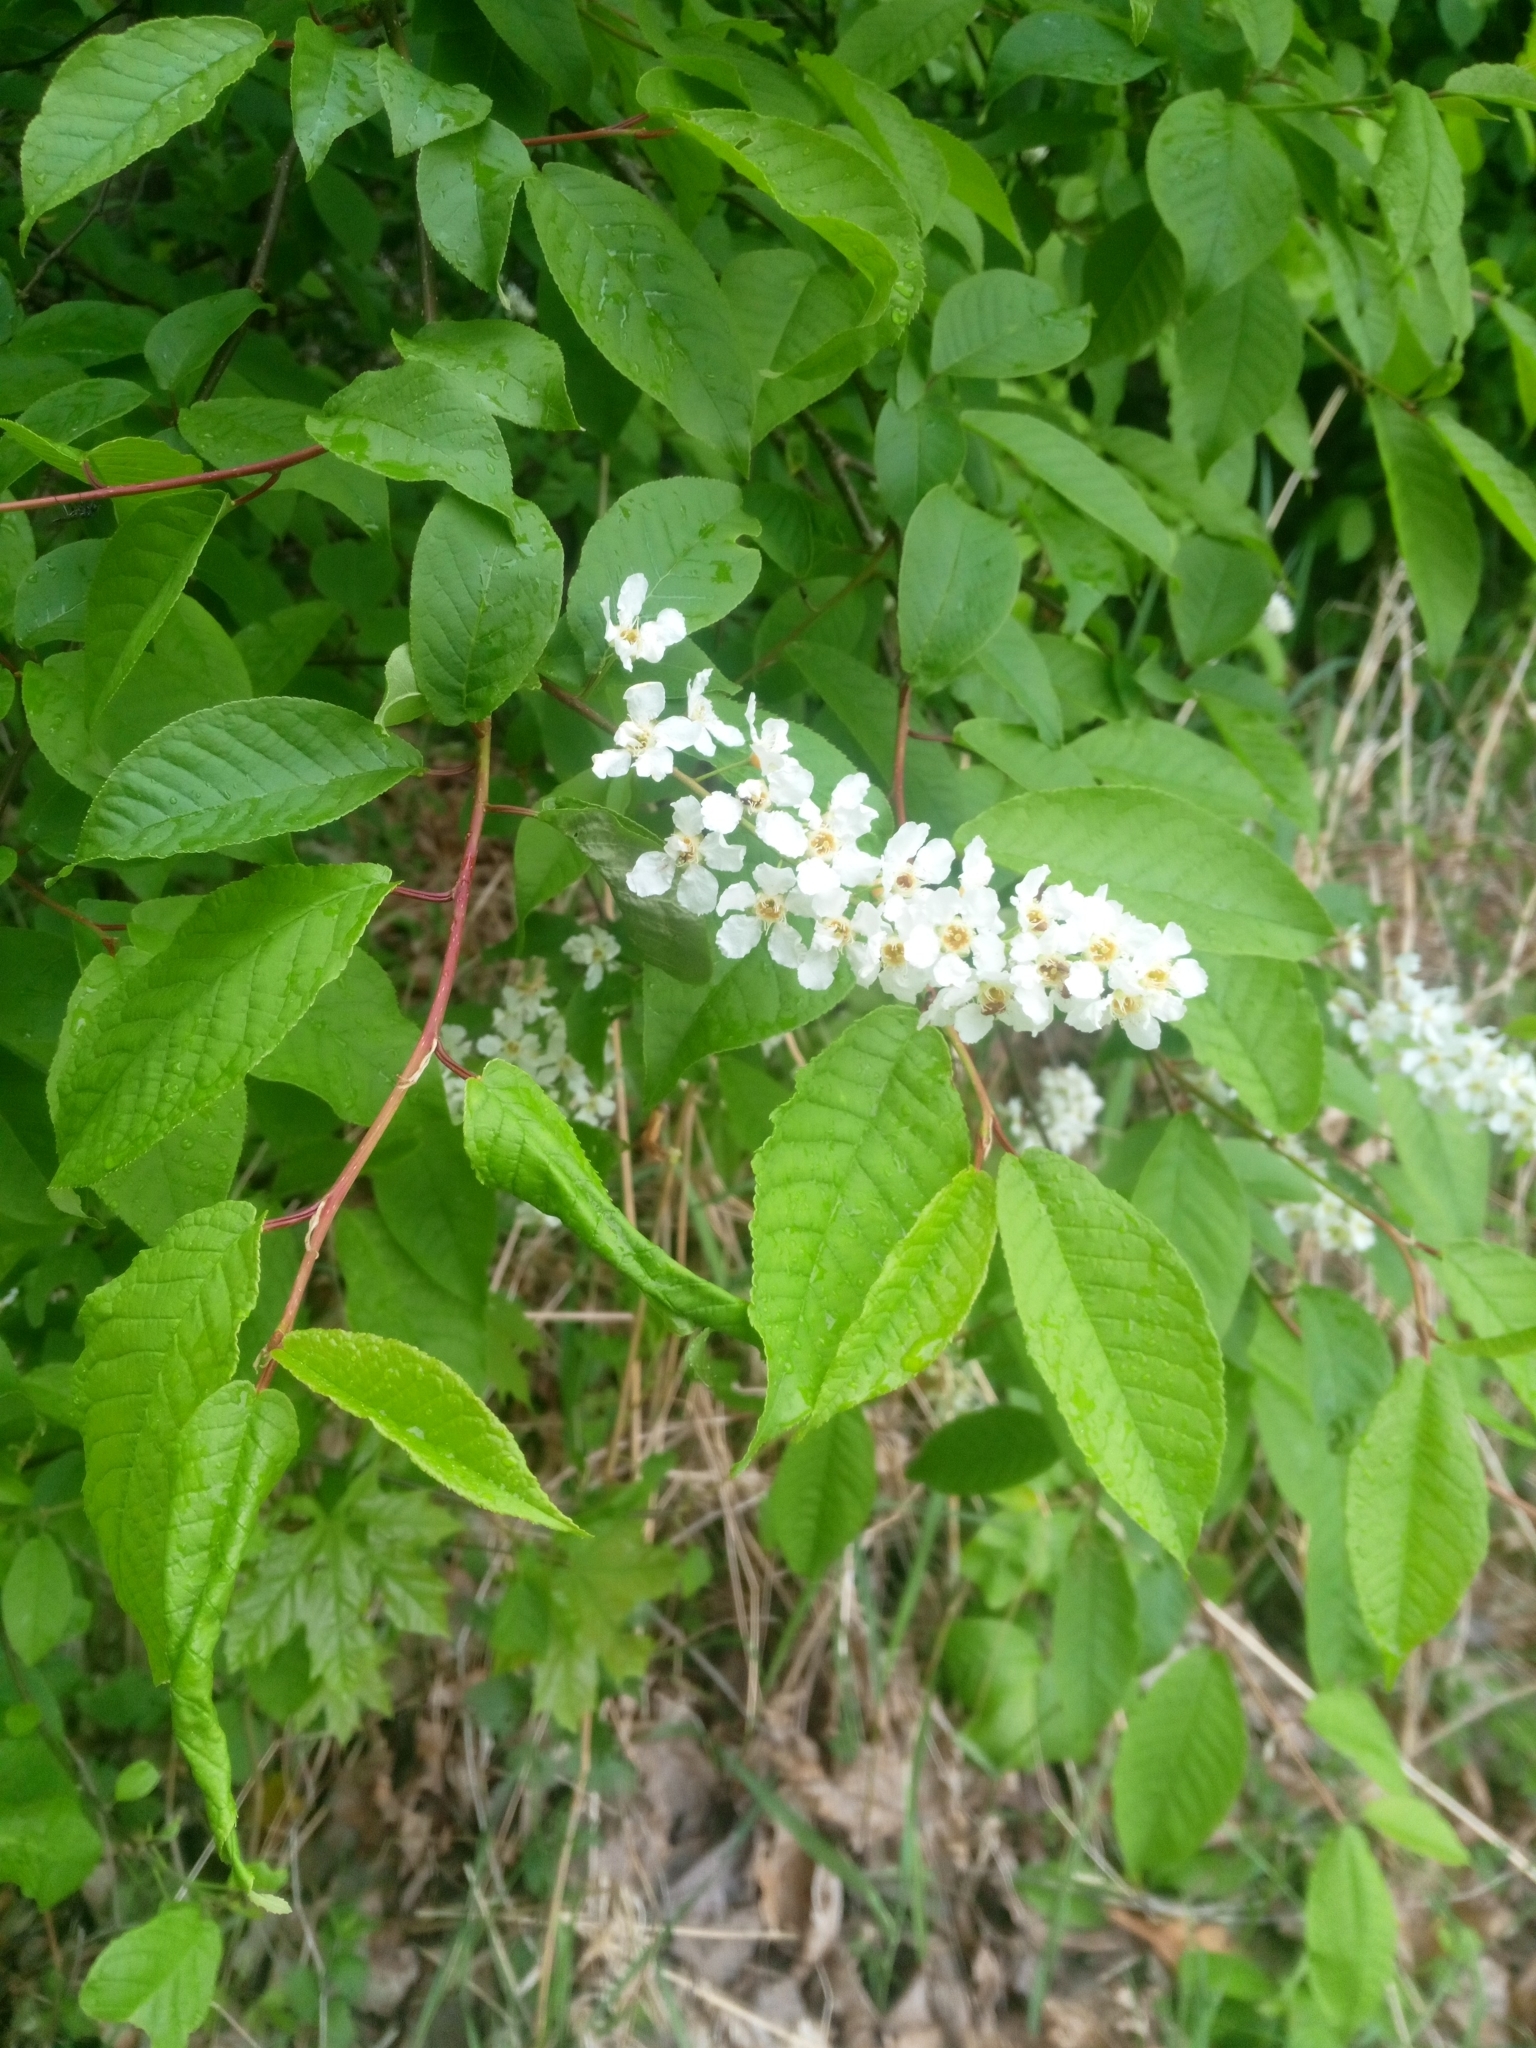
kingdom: Plantae
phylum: Tracheophyta
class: Magnoliopsida
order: Rosales
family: Rosaceae
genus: Prunus
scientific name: Prunus padus
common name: Bird cherry
